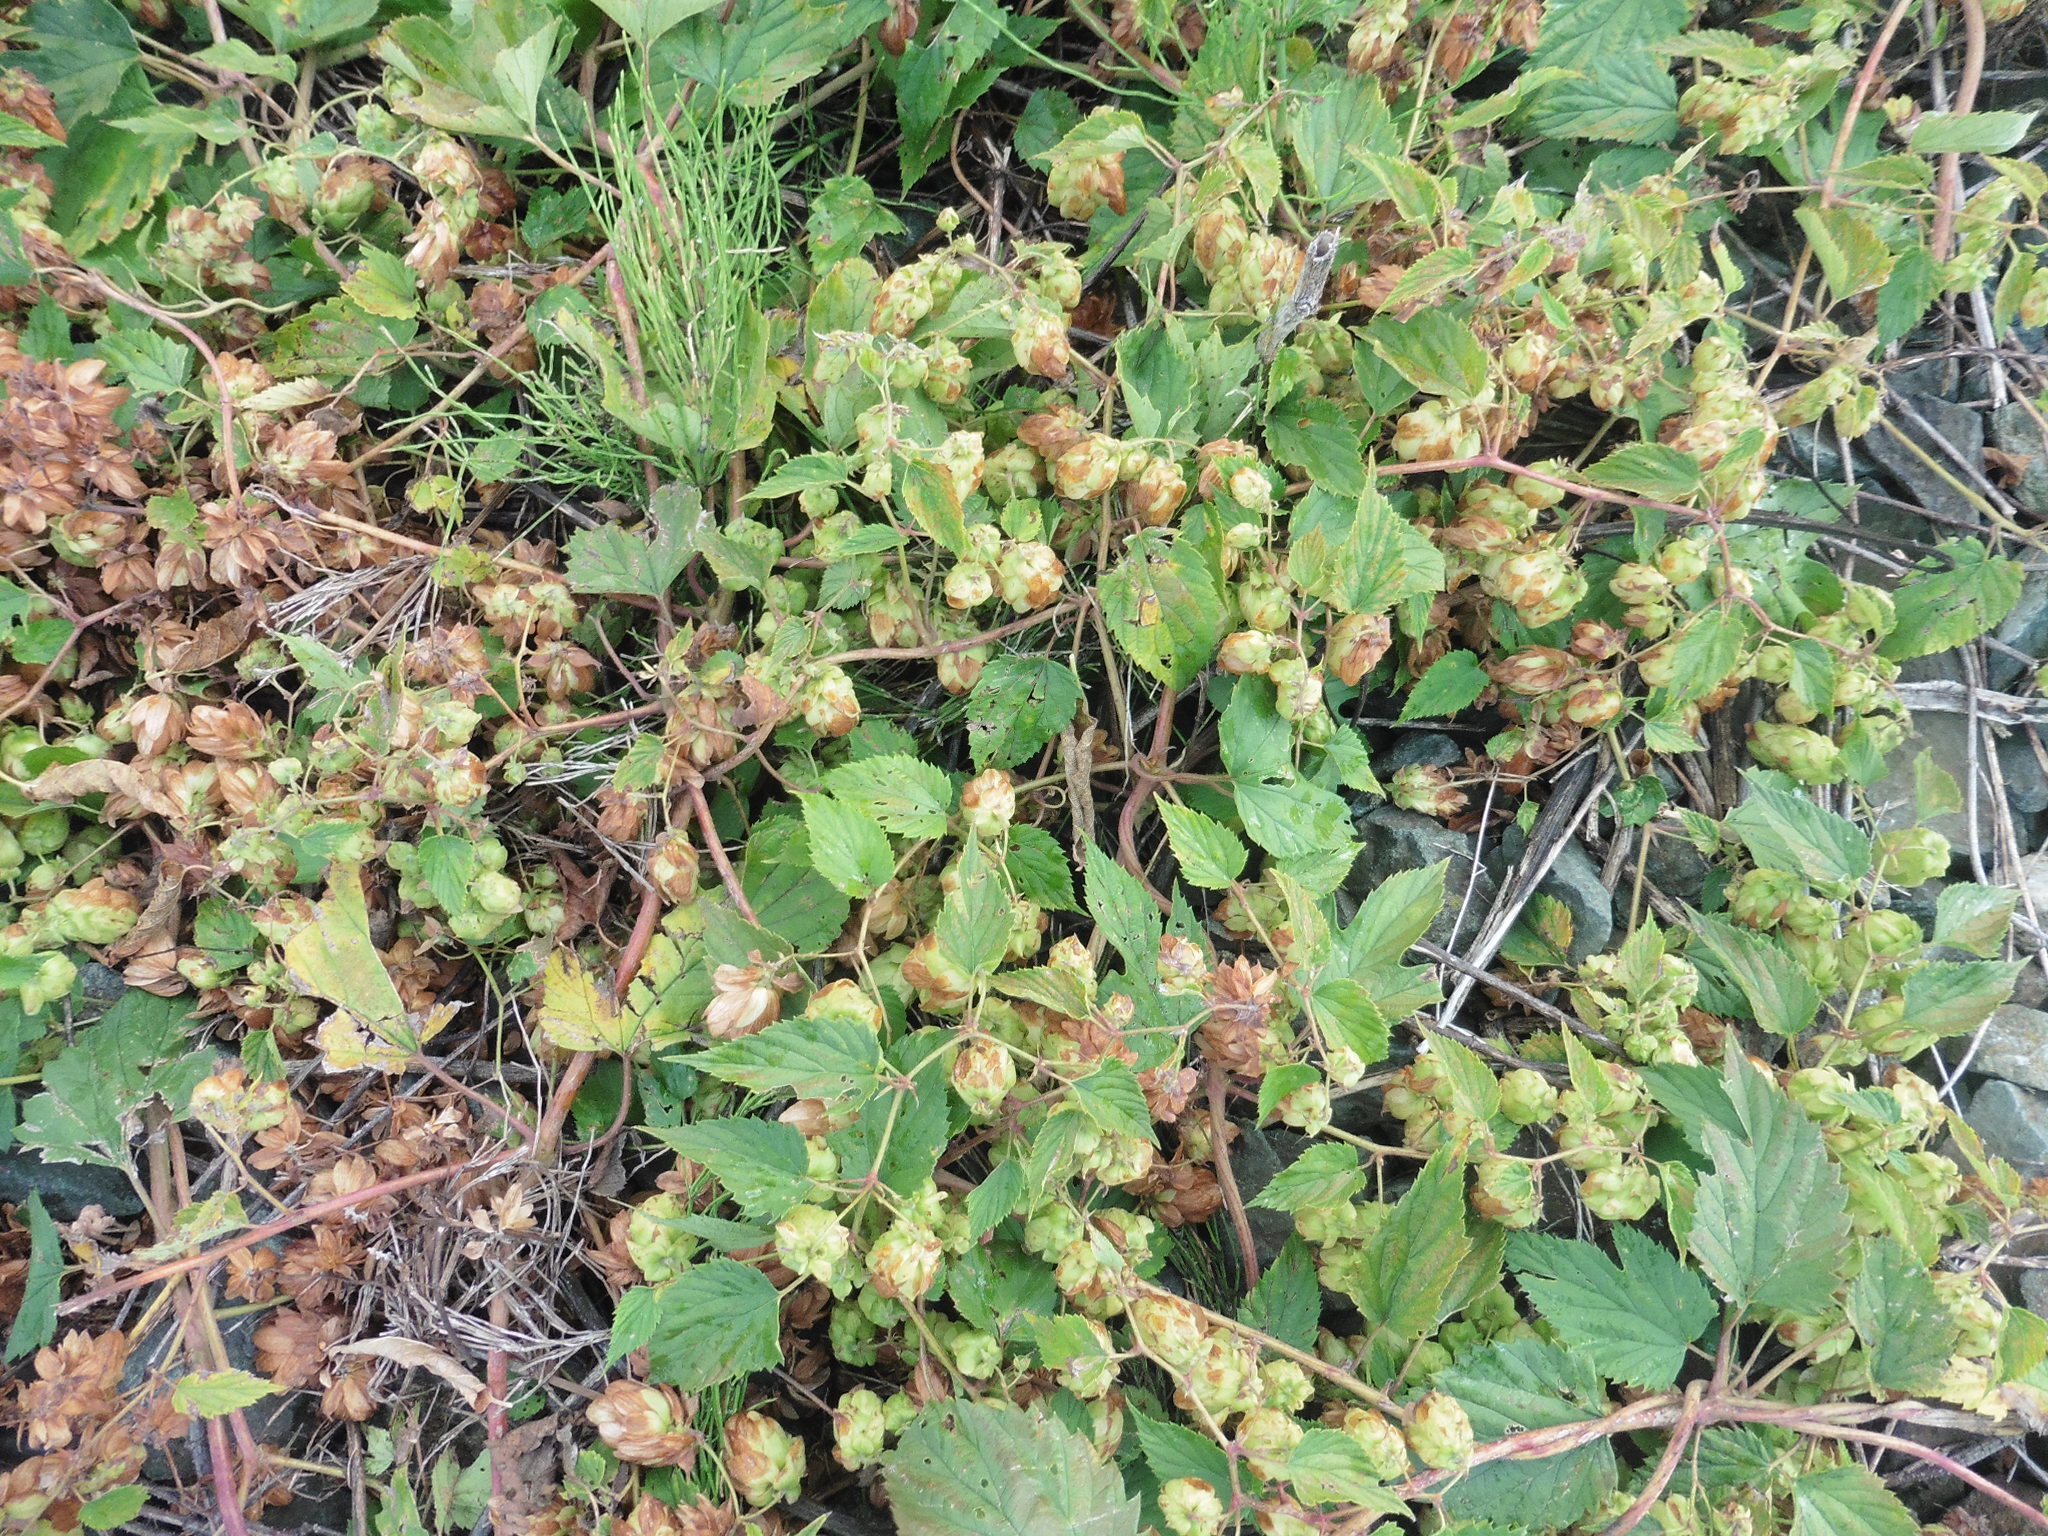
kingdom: Plantae
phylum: Tracheophyta
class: Magnoliopsida
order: Rosales
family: Cannabaceae
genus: Humulus
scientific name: Humulus lupulus
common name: Hop
